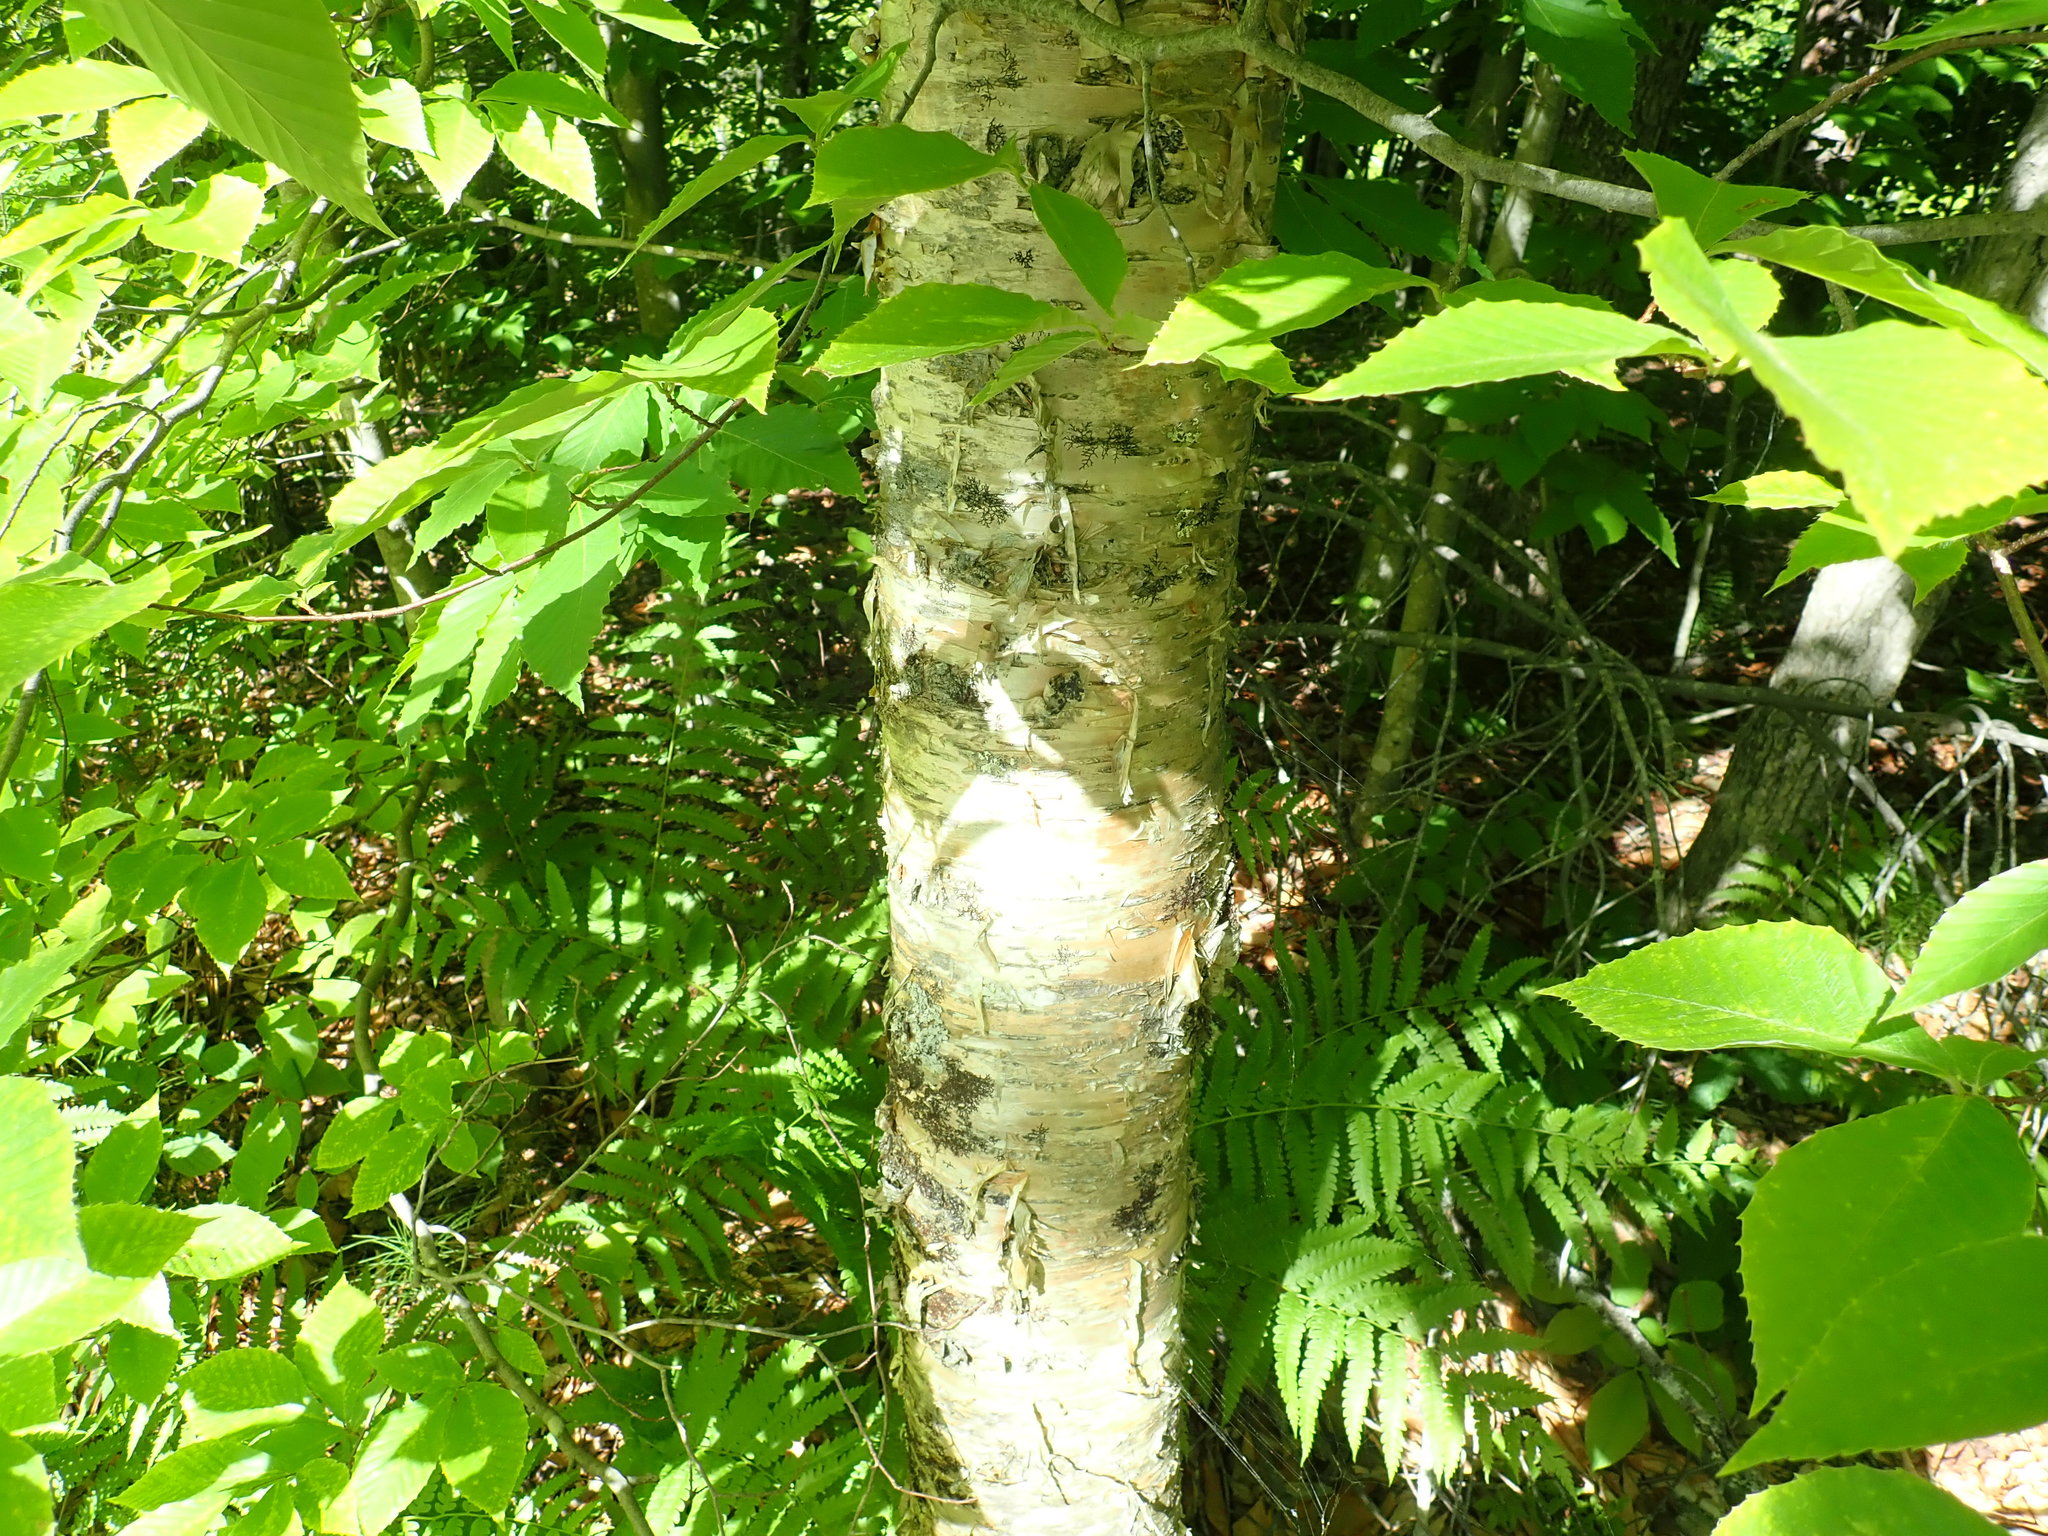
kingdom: Plantae
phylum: Tracheophyta
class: Magnoliopsida
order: Fagales
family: Betulaceae
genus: Betula
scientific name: Betula alleghaniensis
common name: Yellow birch
